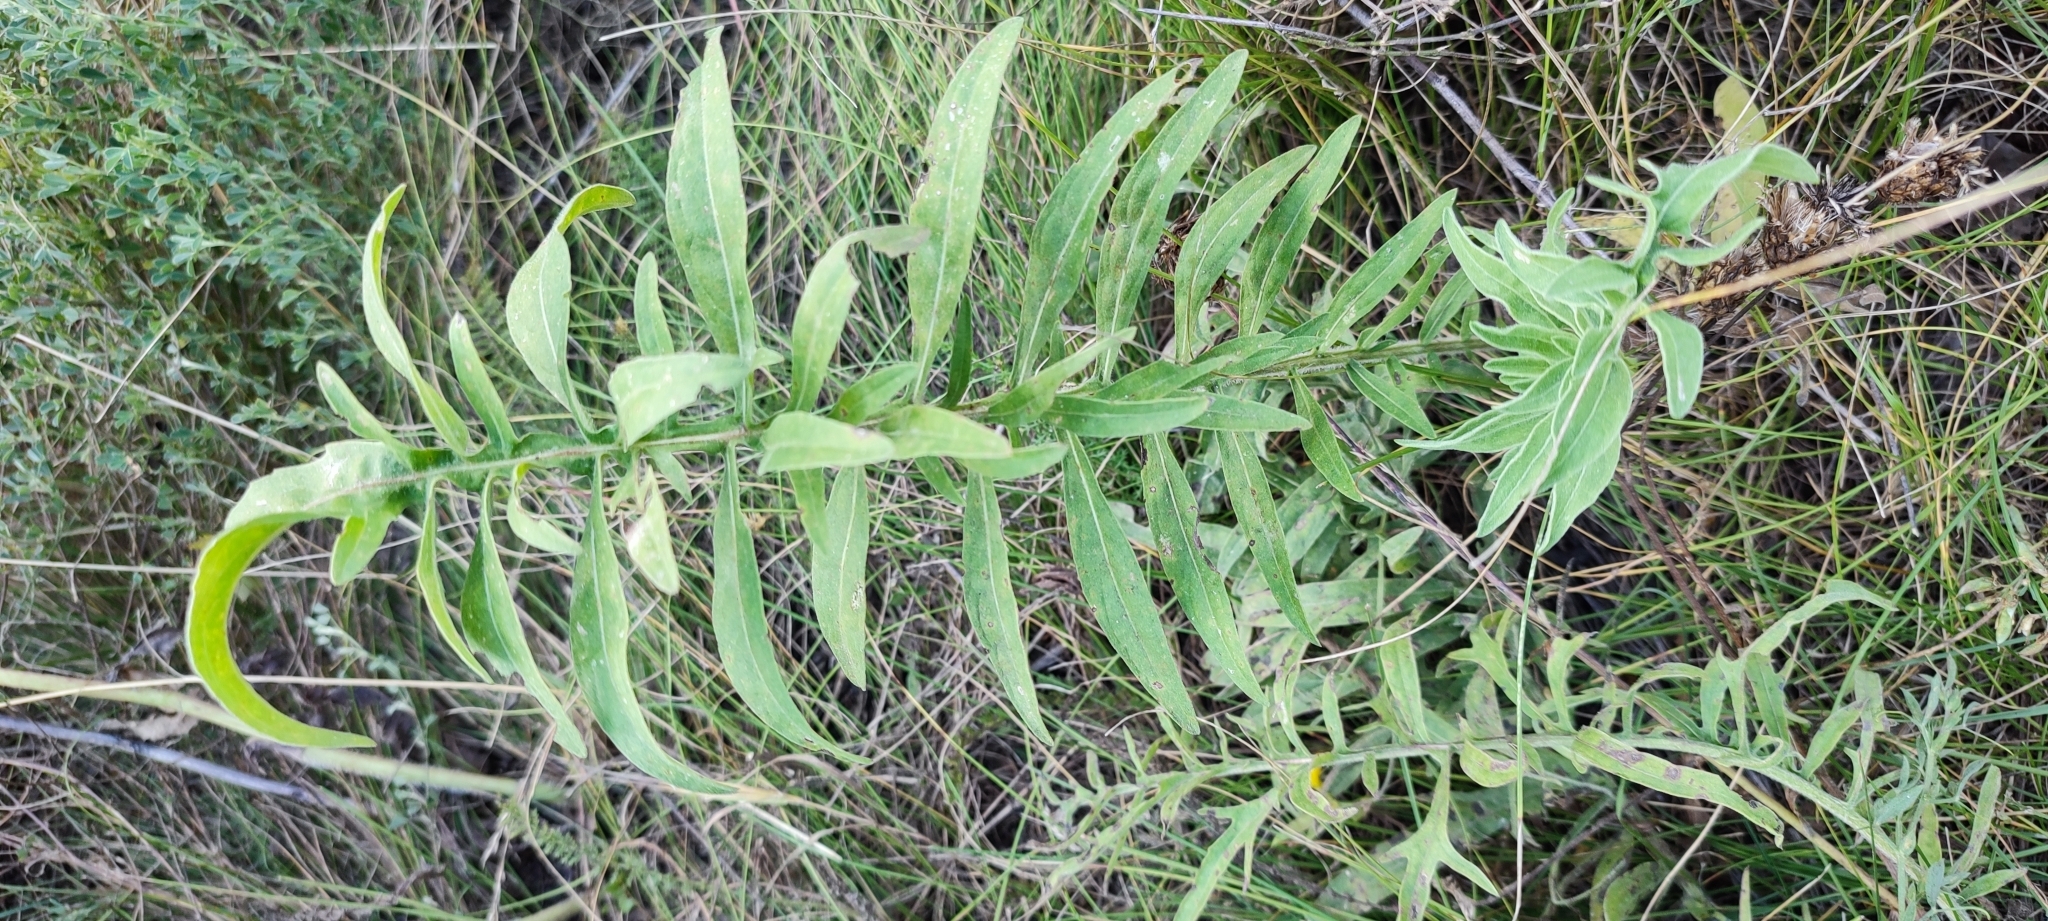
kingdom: Plantae
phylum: Tracheophyta
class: Magnoliopsida
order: Asterales
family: Asteraceae
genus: Centaurea
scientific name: Centaurea scabiosa
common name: Greater knapweed
